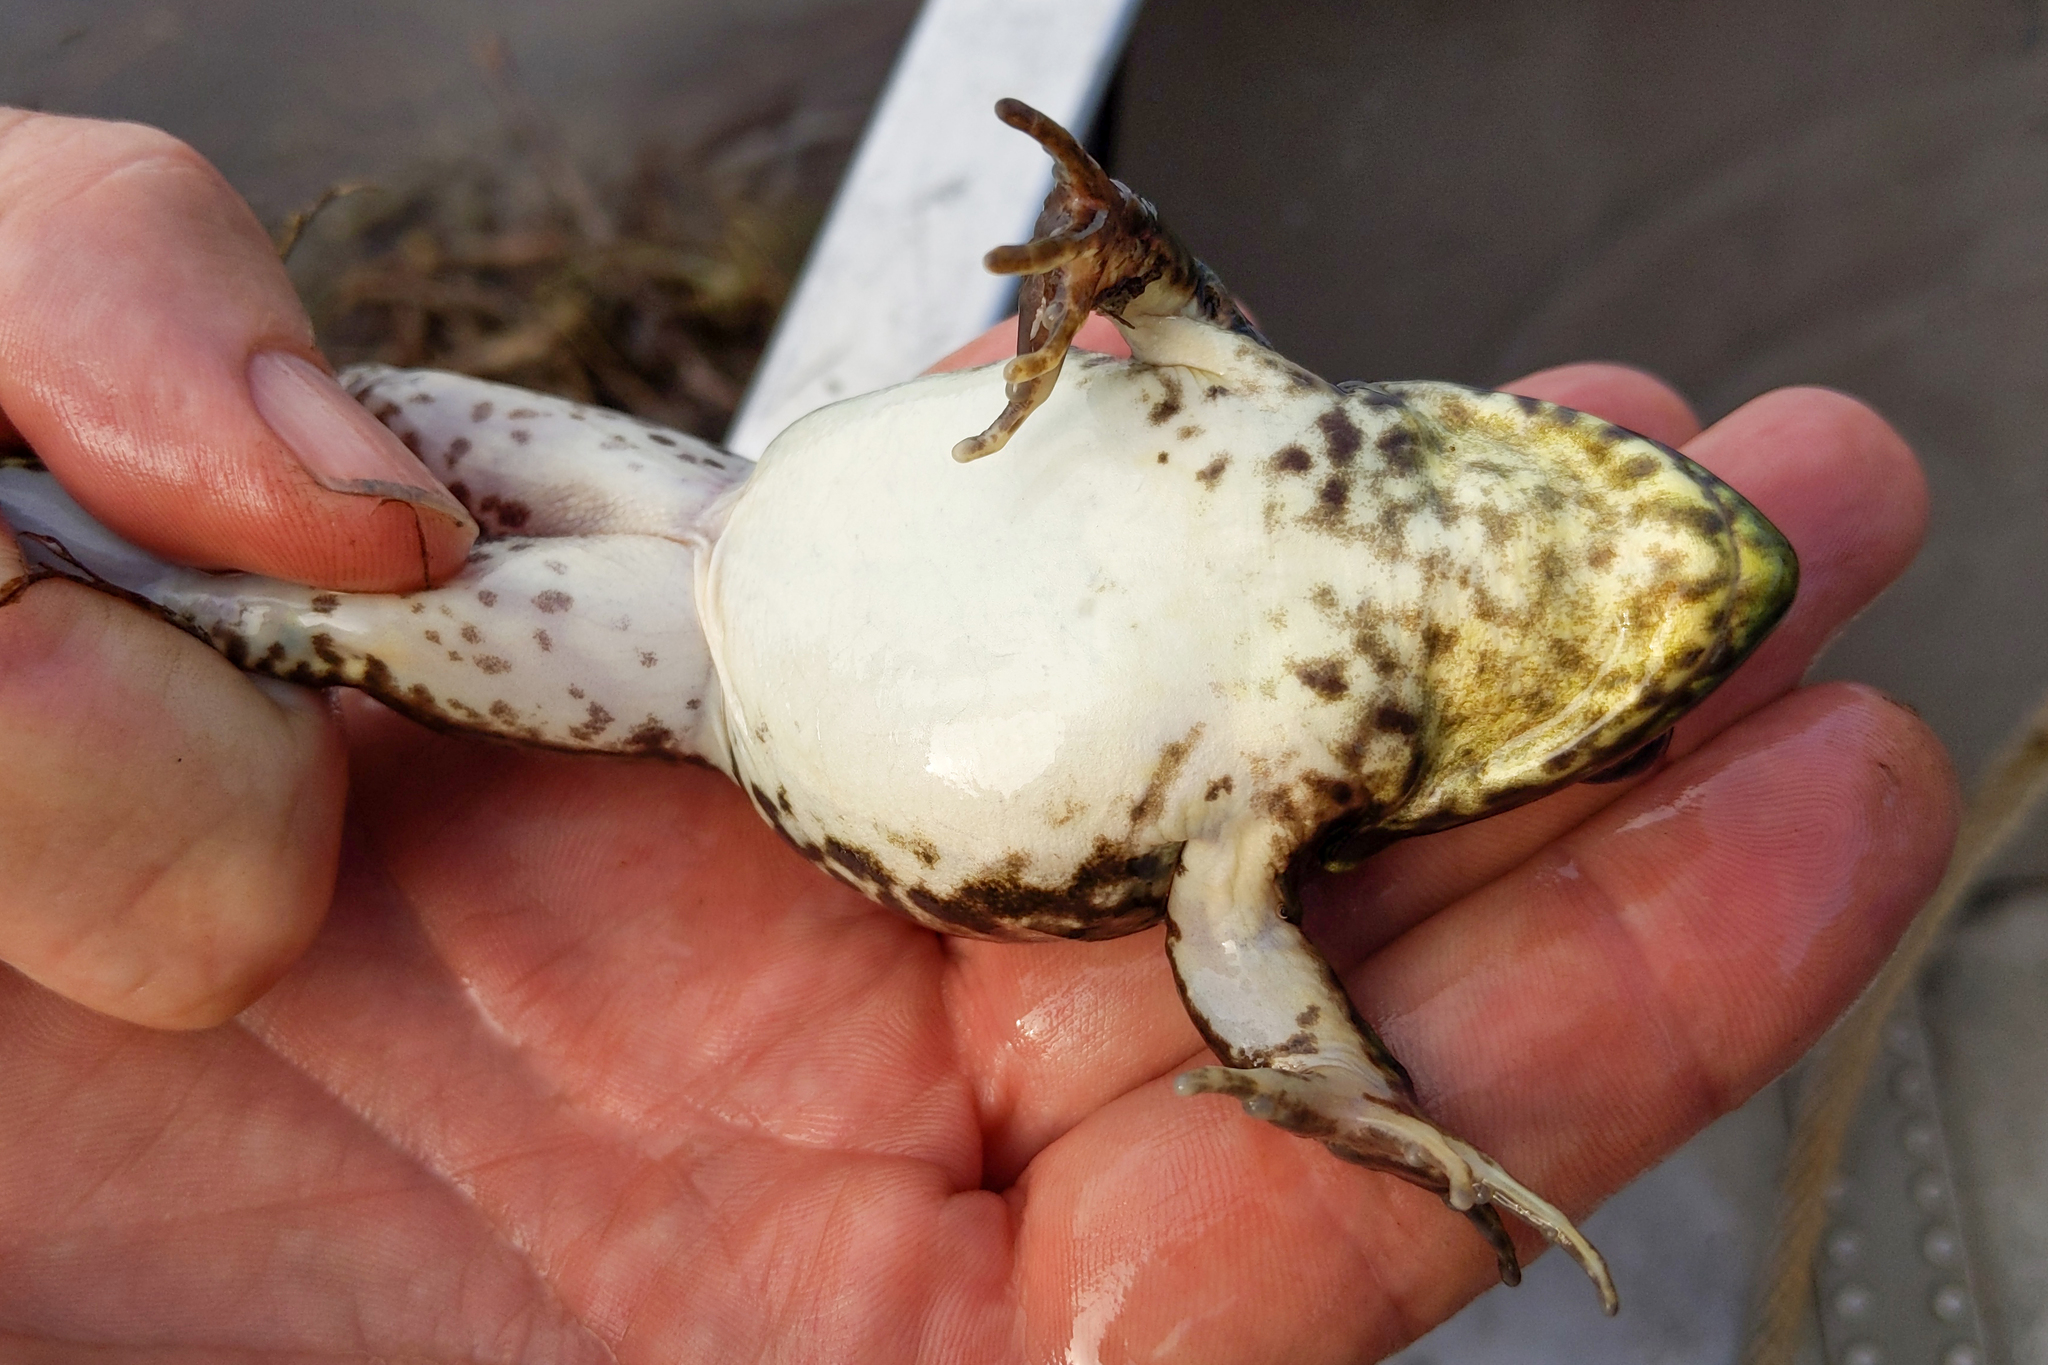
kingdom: Animalia
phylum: Chordata
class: Amphibia
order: Anura
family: Ranidae
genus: Lithobates
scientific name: Lithobates clamitans
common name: Green frog
